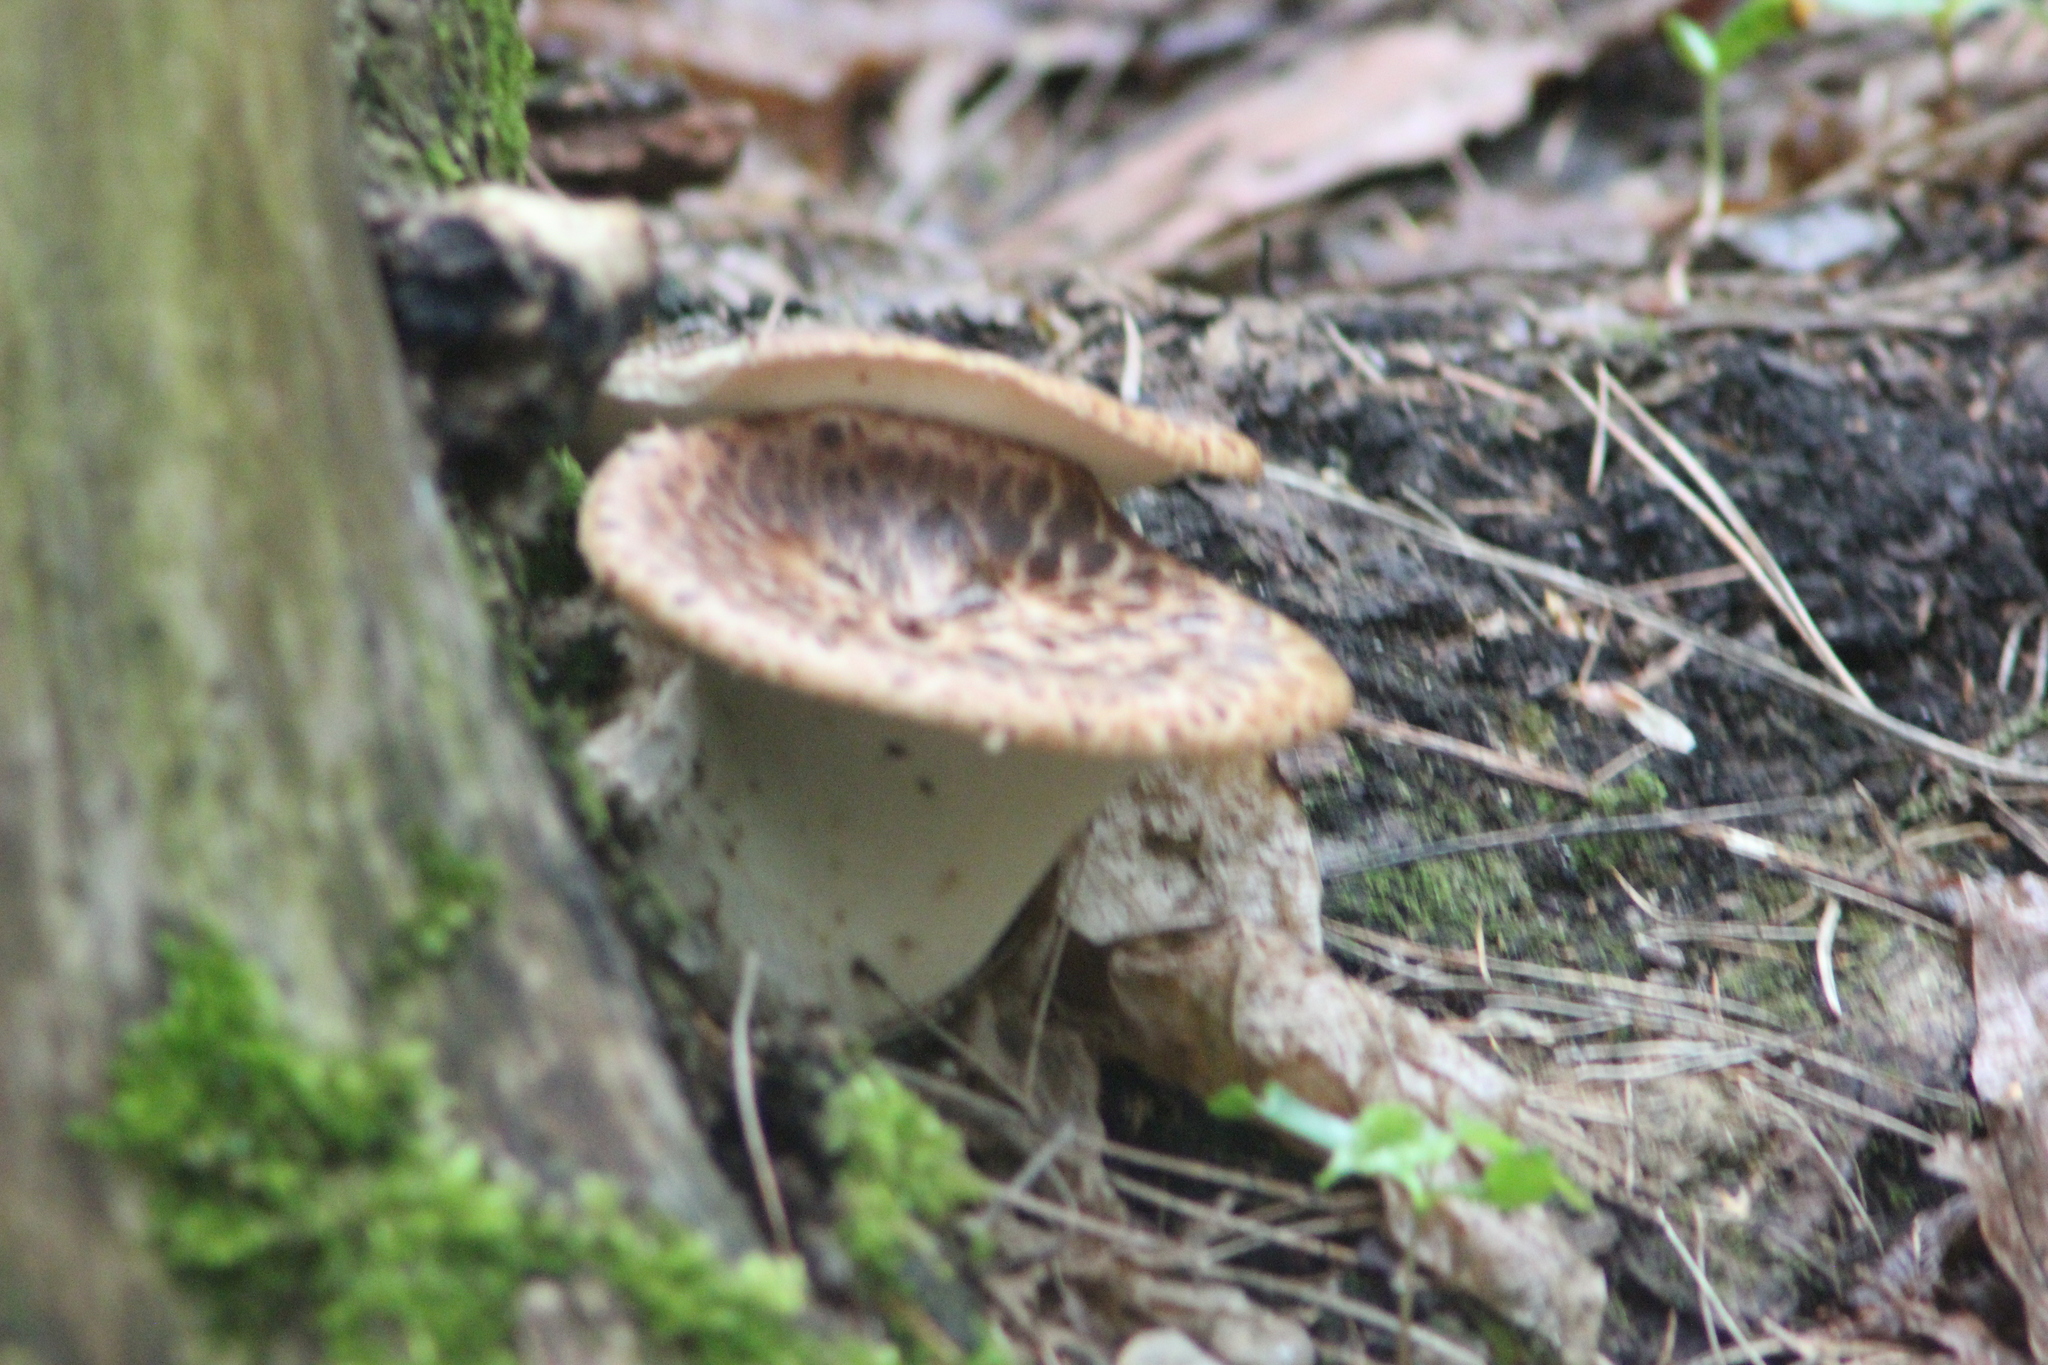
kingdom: Fungi
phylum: Basidiomycota
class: Agaricomycetes
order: Polyporales
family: Polyporaceae
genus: Cerioporus
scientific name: Cerioporus squamosus
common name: Dryad's saddle
